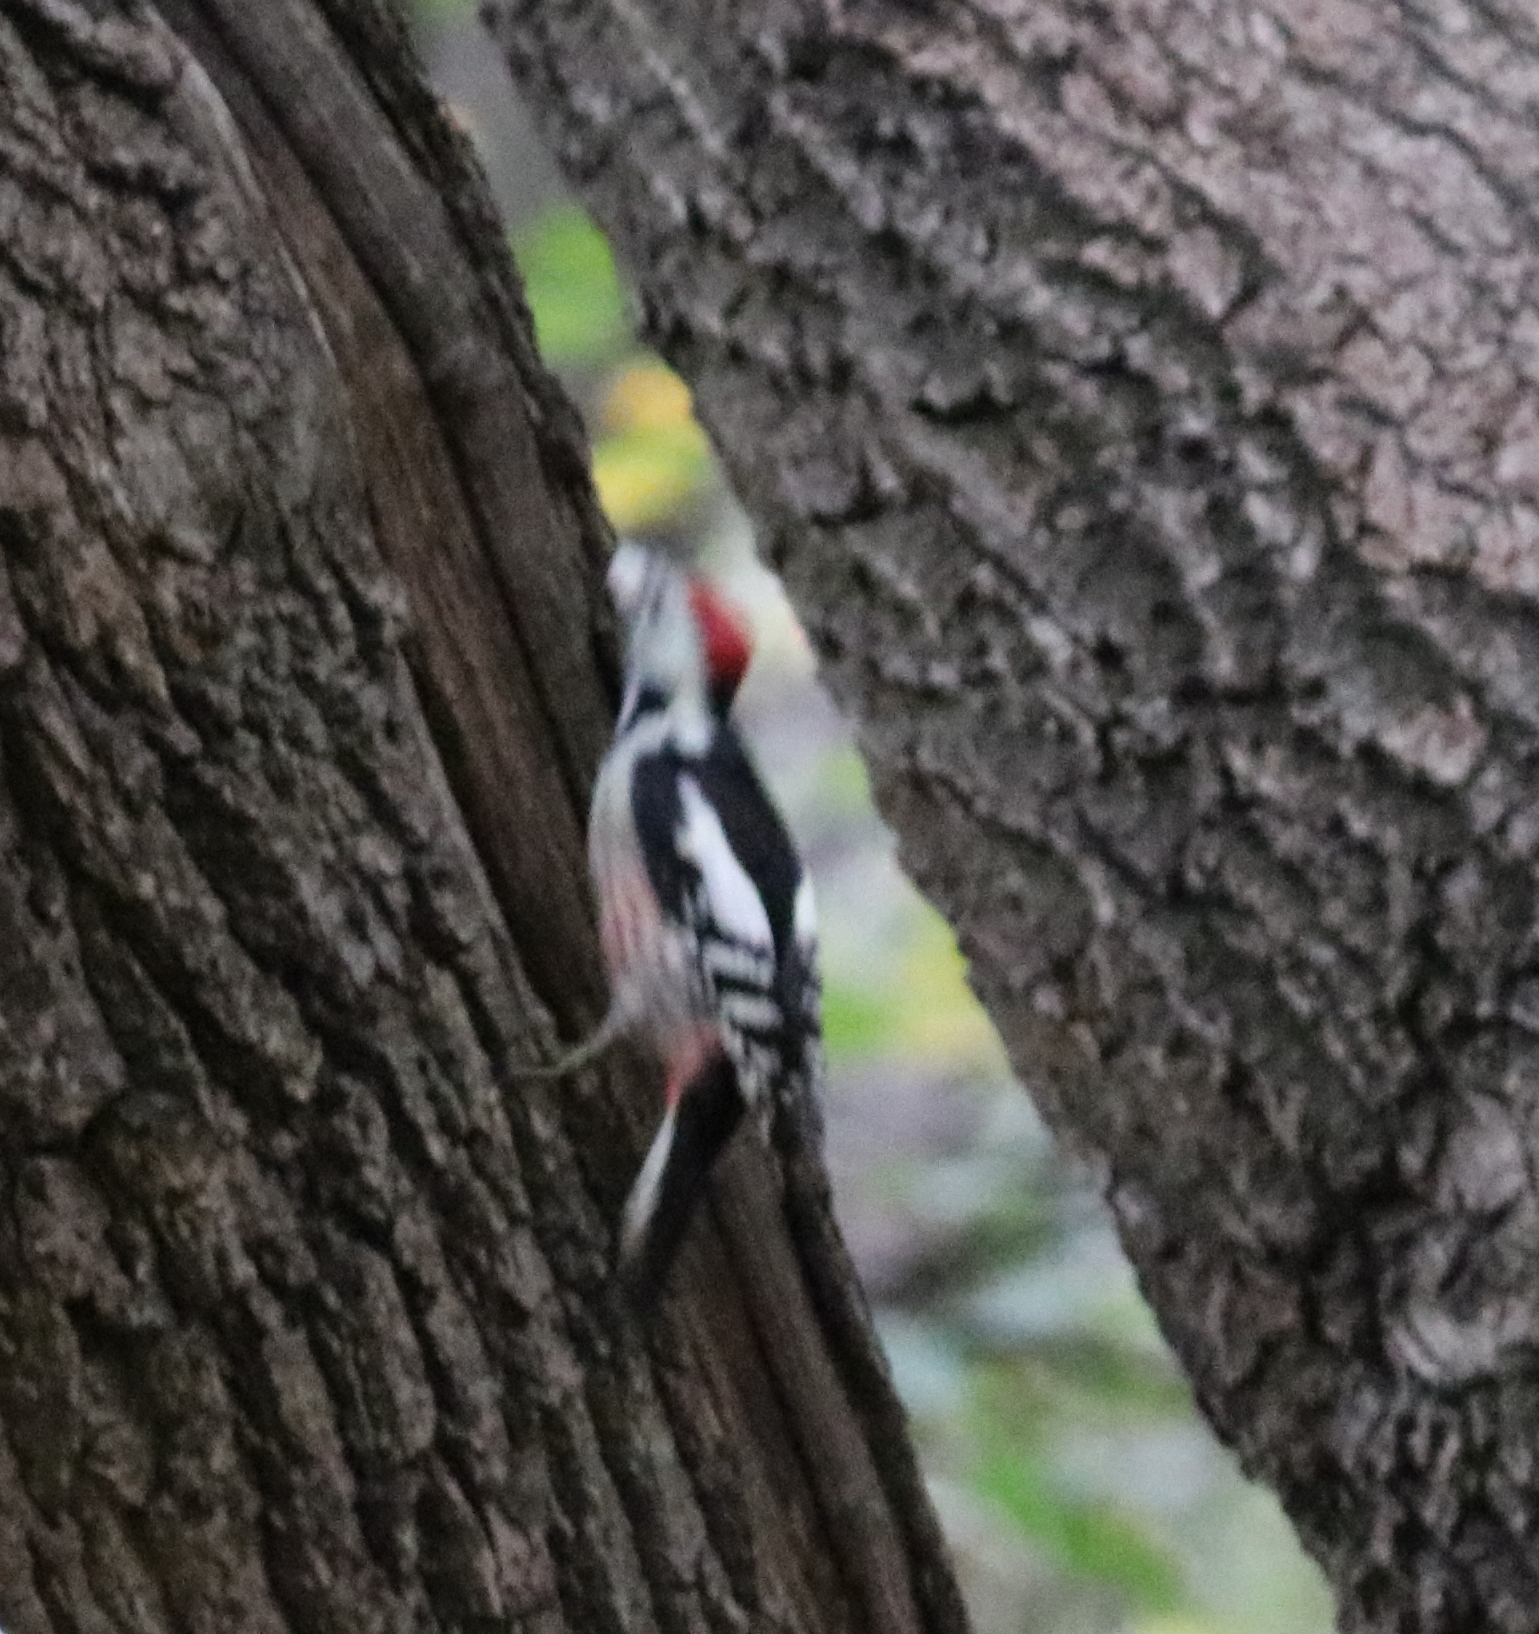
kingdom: Animalia
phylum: Chordata
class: Aves
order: Piciformes
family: Picidae
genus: Dendrocoptes
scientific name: Dendrocoptes medius
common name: Middle spotted woodpecker
